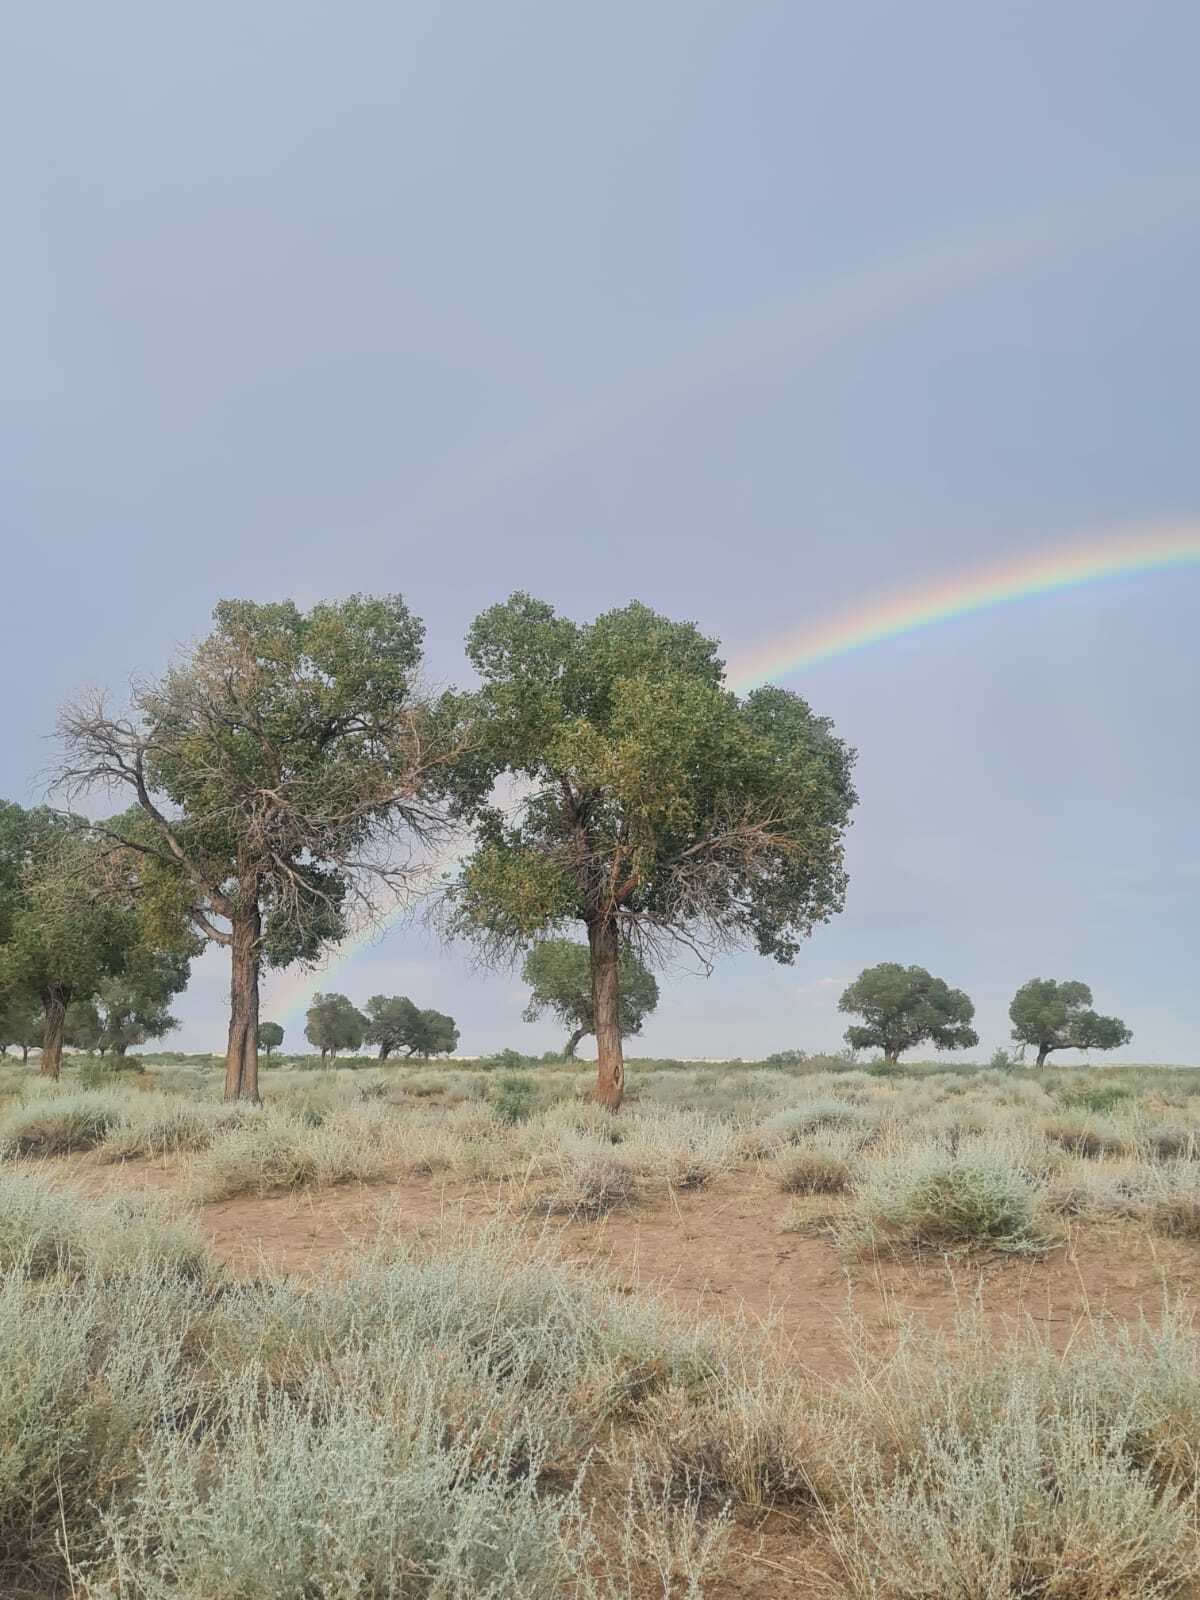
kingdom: Plantae
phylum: Tracheophyta
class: Magnoliopsida
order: Malpighiales
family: Salicaceae
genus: Populus
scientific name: Populus euphratica
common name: Euphrates poplar
